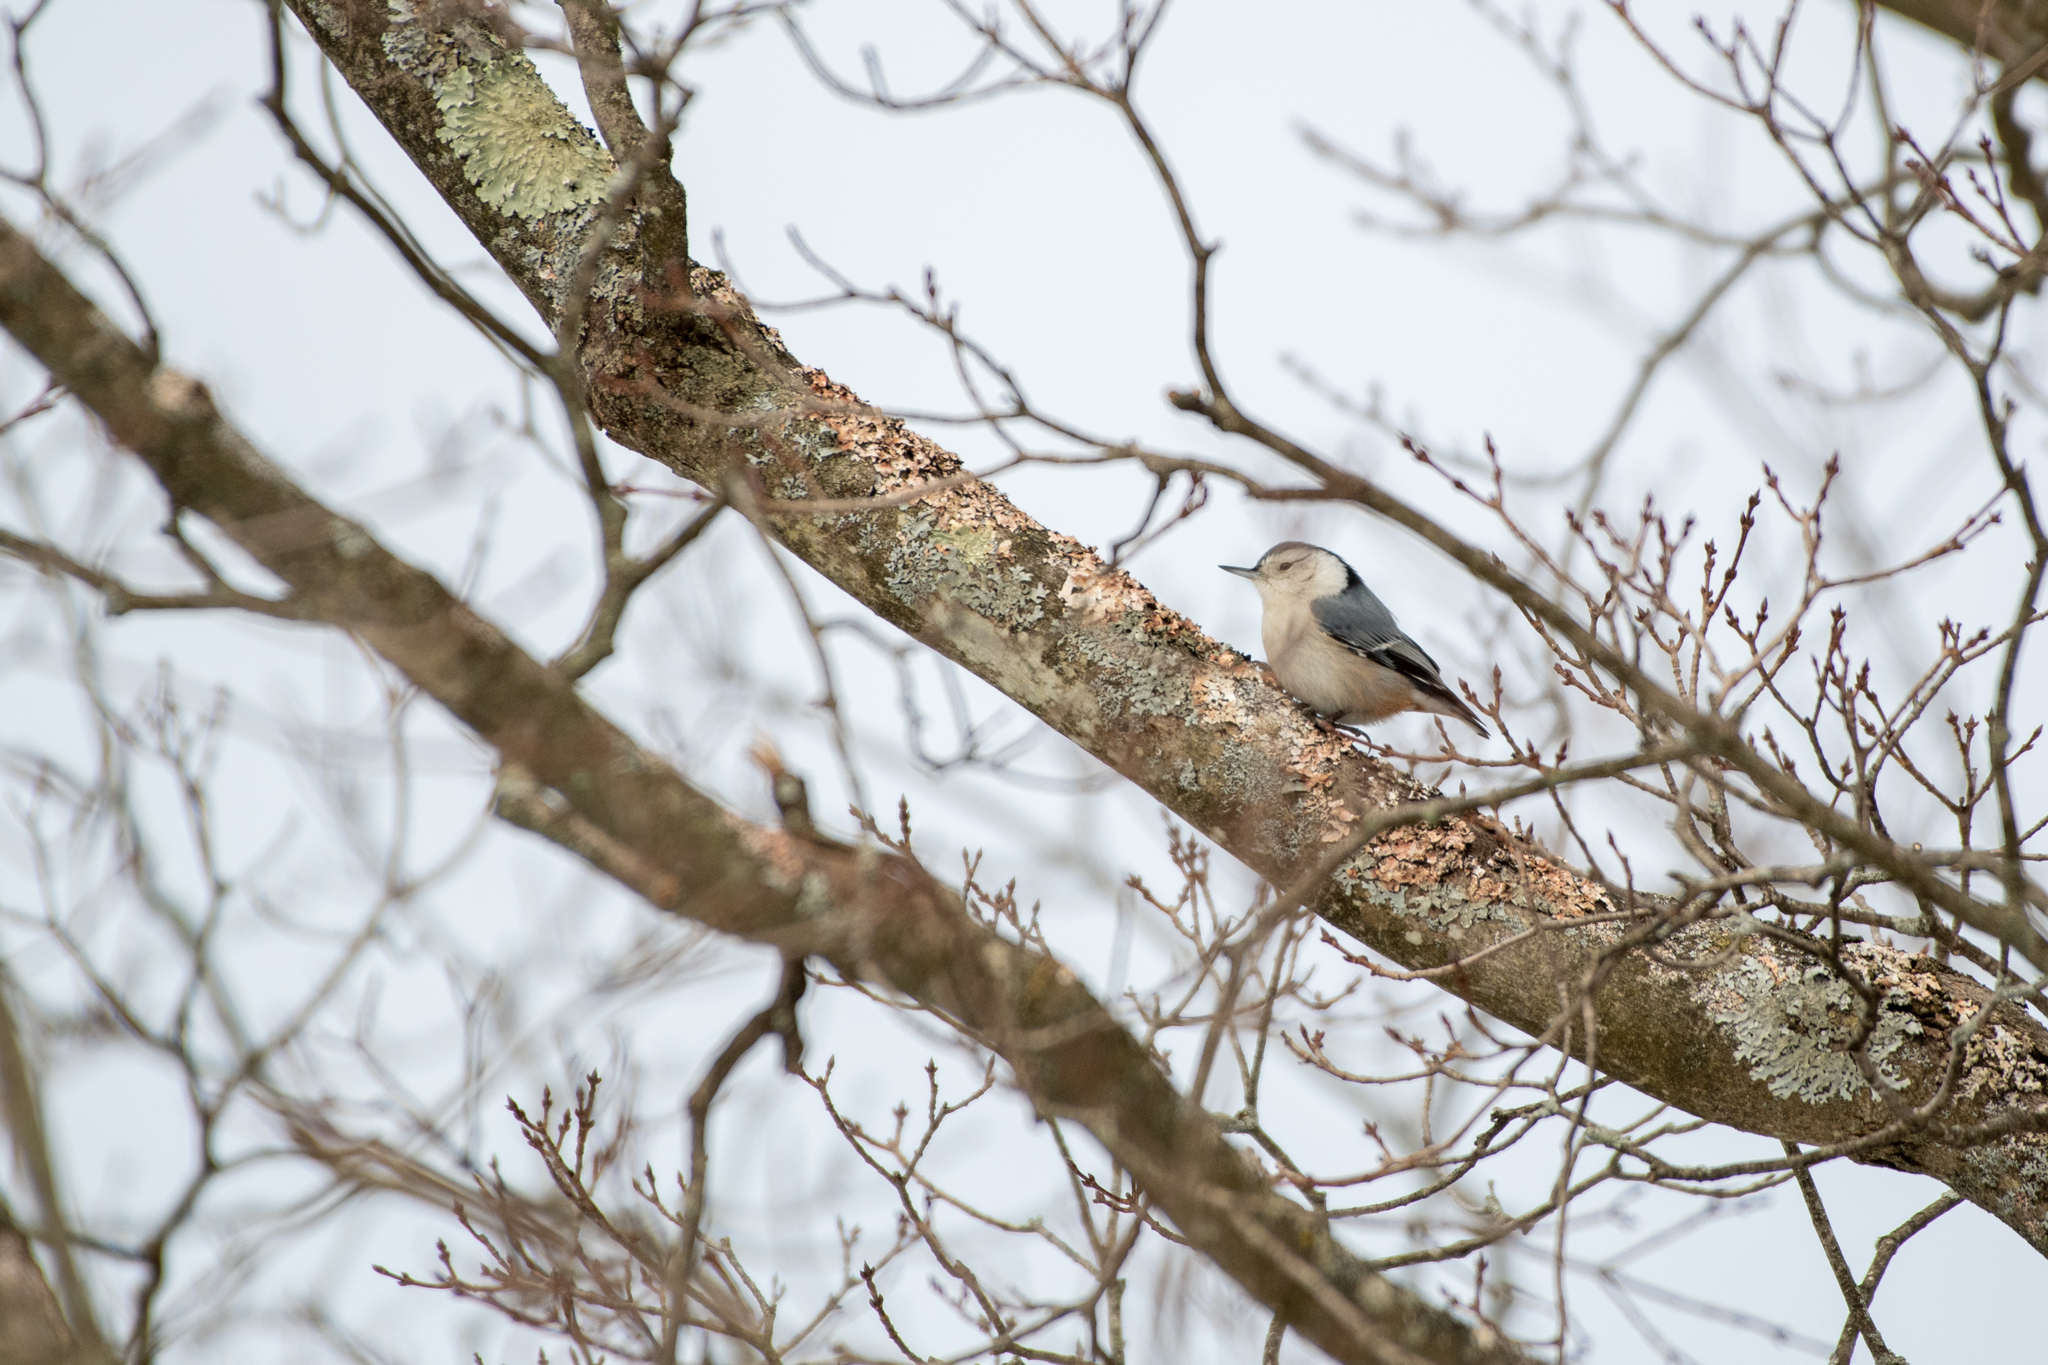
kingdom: Animalia
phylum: Chordata
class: Aves
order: Passeriformes
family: Sittidae
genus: Sitta
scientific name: Sitta carolinensis
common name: White-breasted nuthatch
